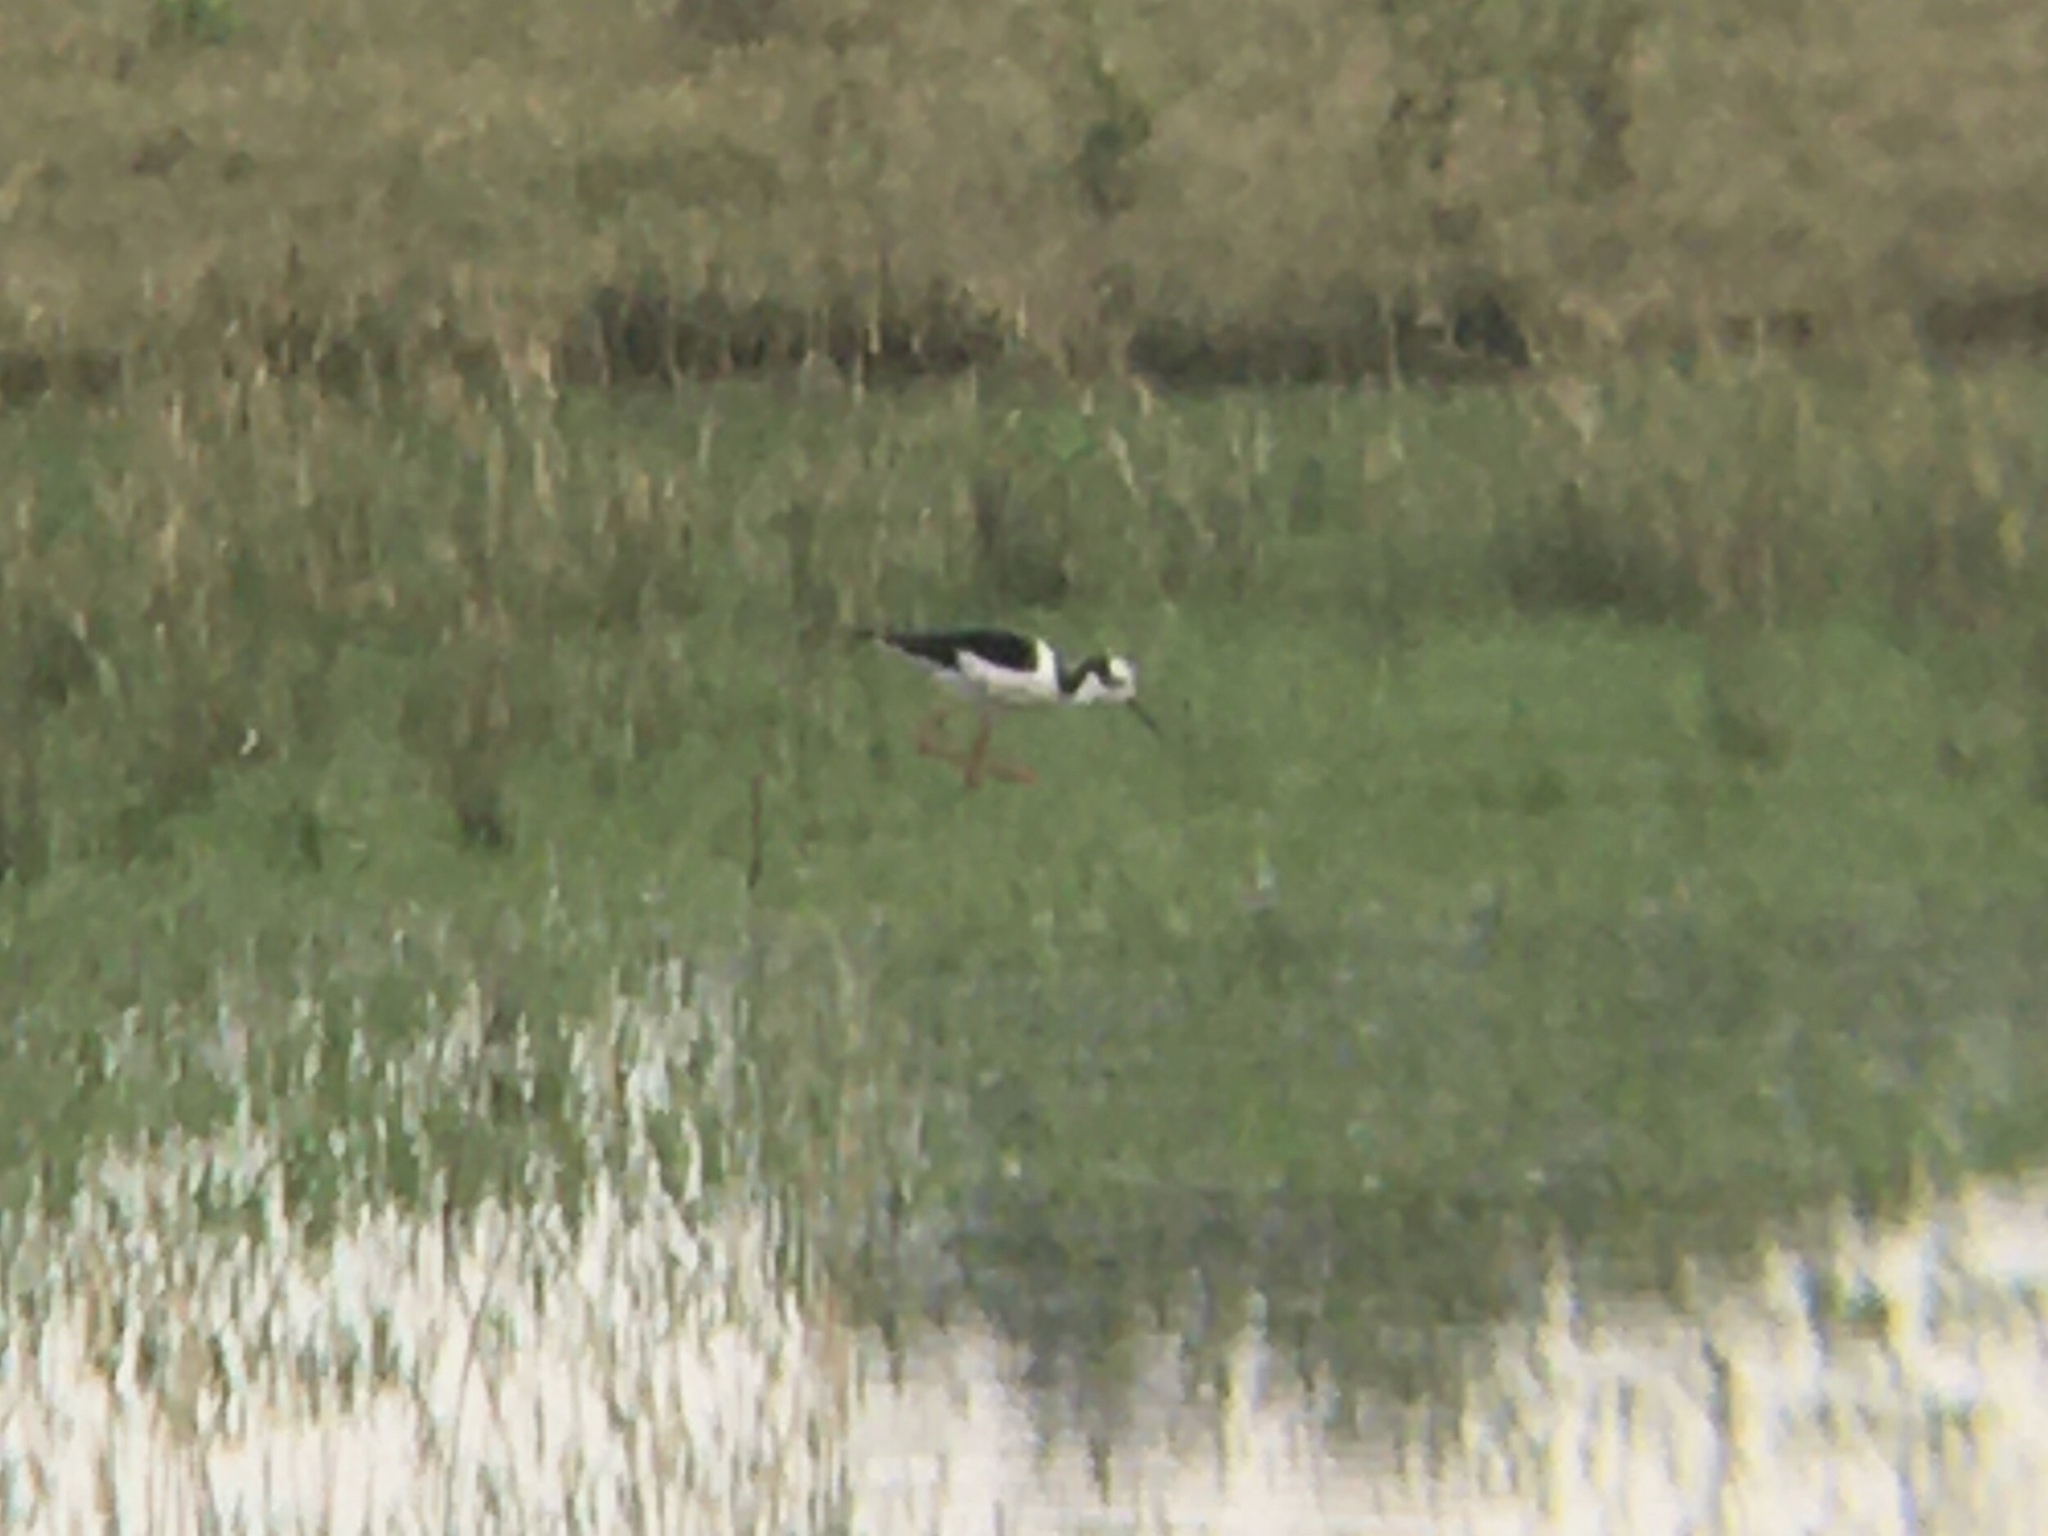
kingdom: Animalia
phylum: Chordata
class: Aves
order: Charadriiformes
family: Recurvirostridae
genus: Himantopus
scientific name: Himantopus mexicanus
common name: Black-necked stilt
